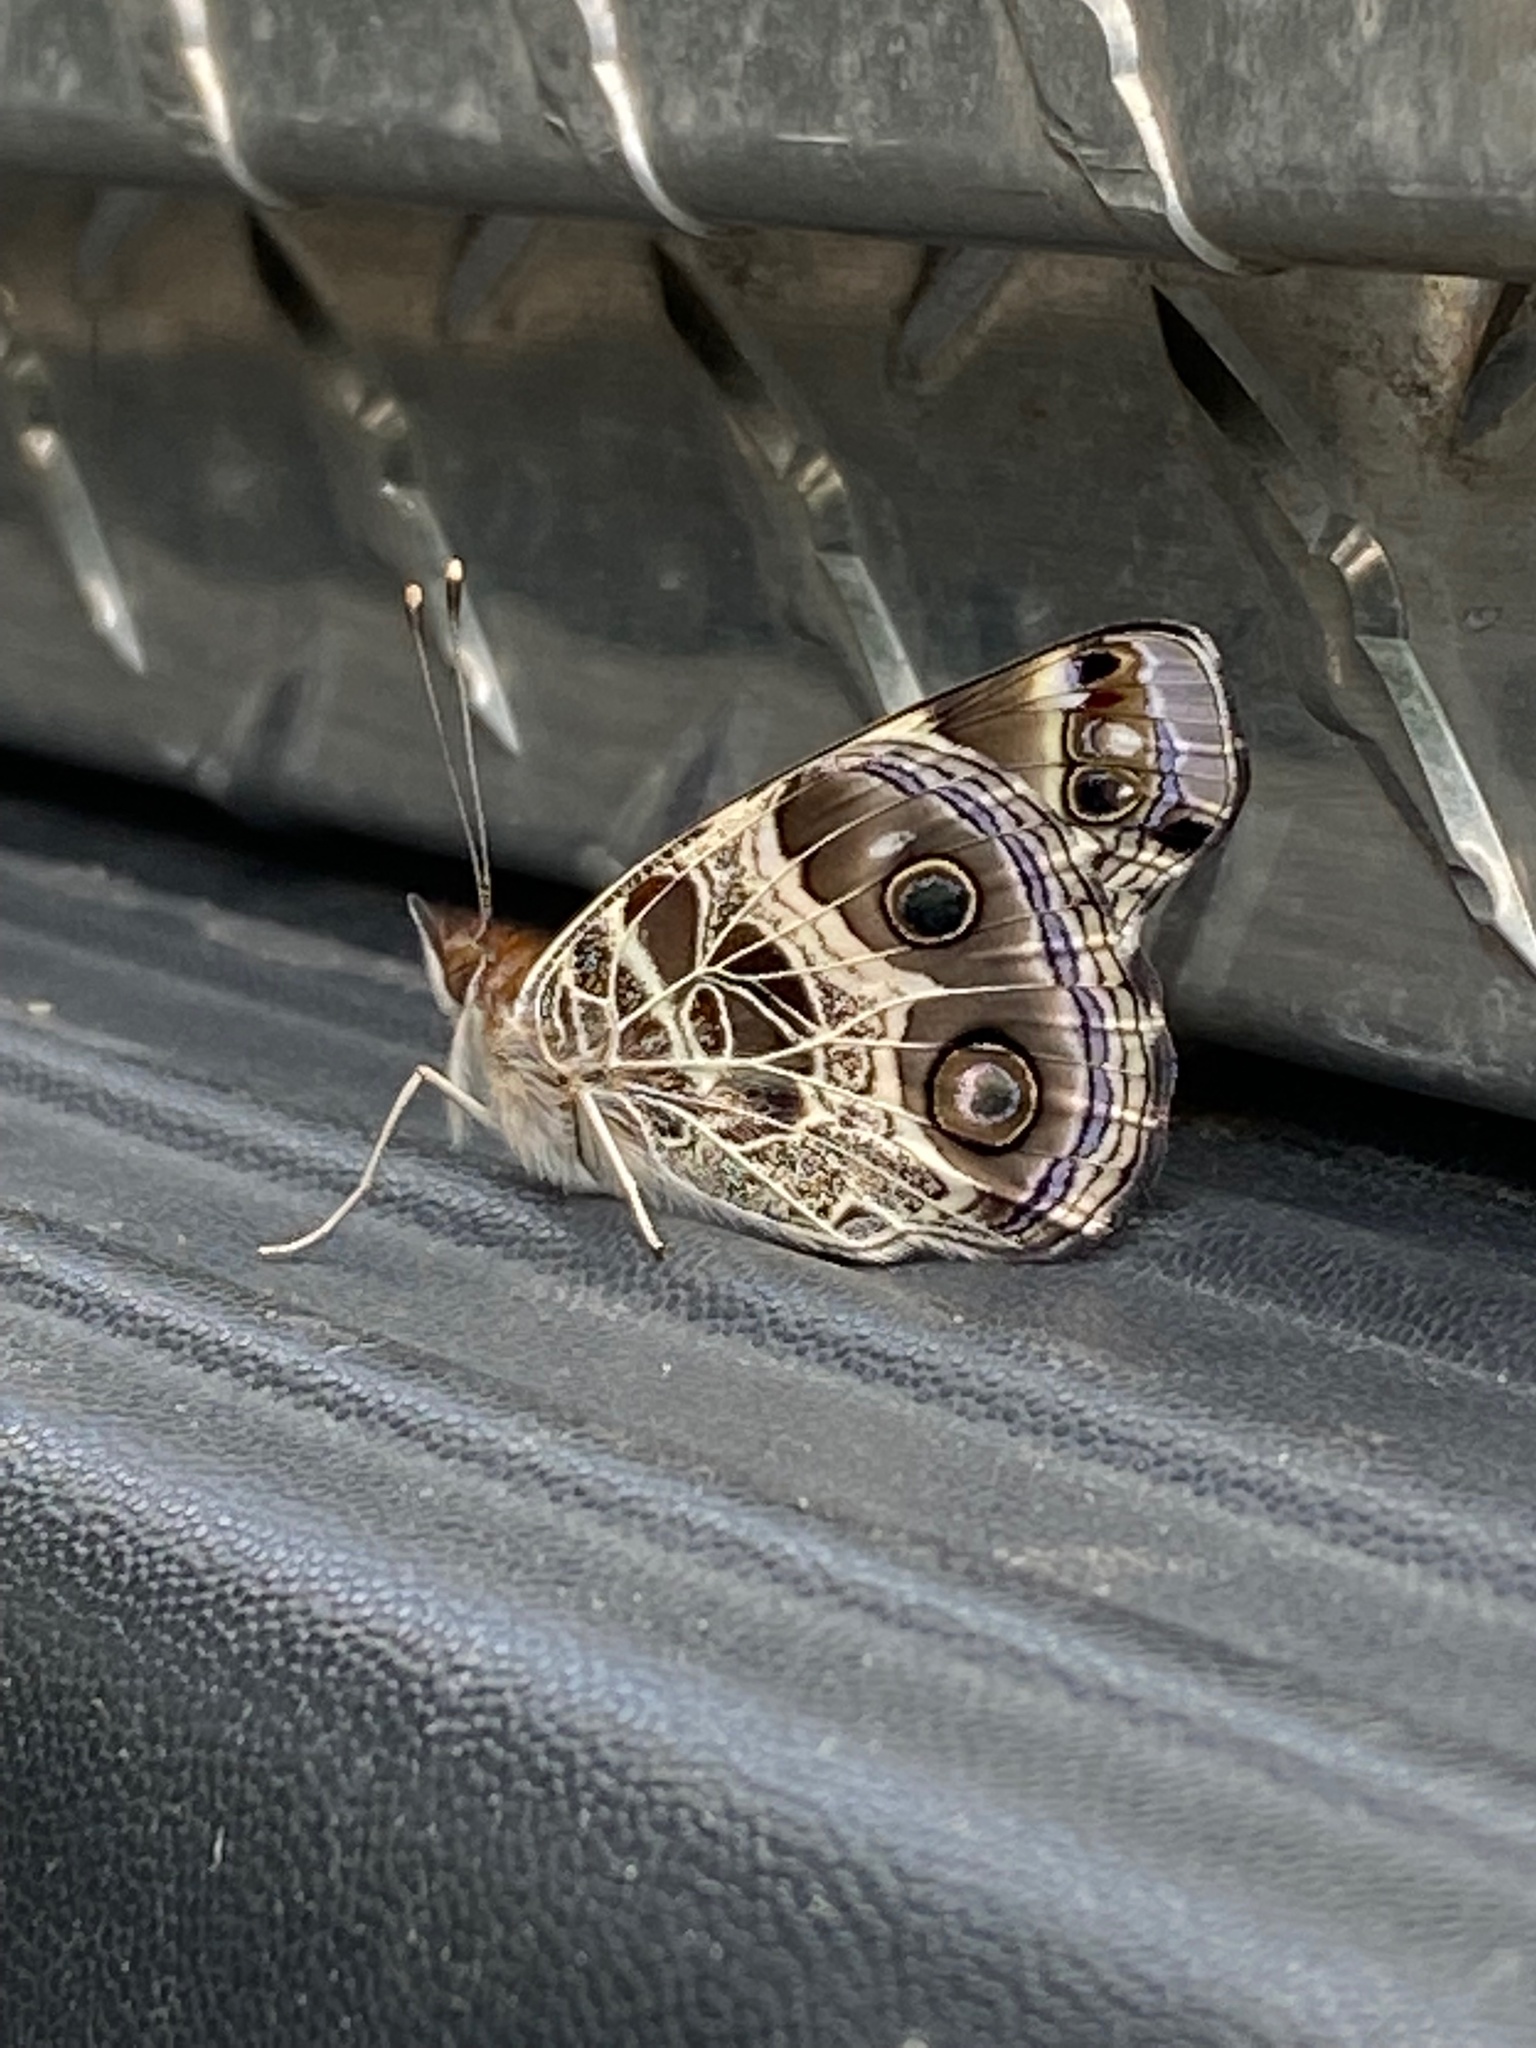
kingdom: Animalia
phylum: Arthropoda
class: Insecta
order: Lepidoptera
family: Nymphalidae
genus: Vanessa
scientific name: Vanessa virginiensis
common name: American lady
